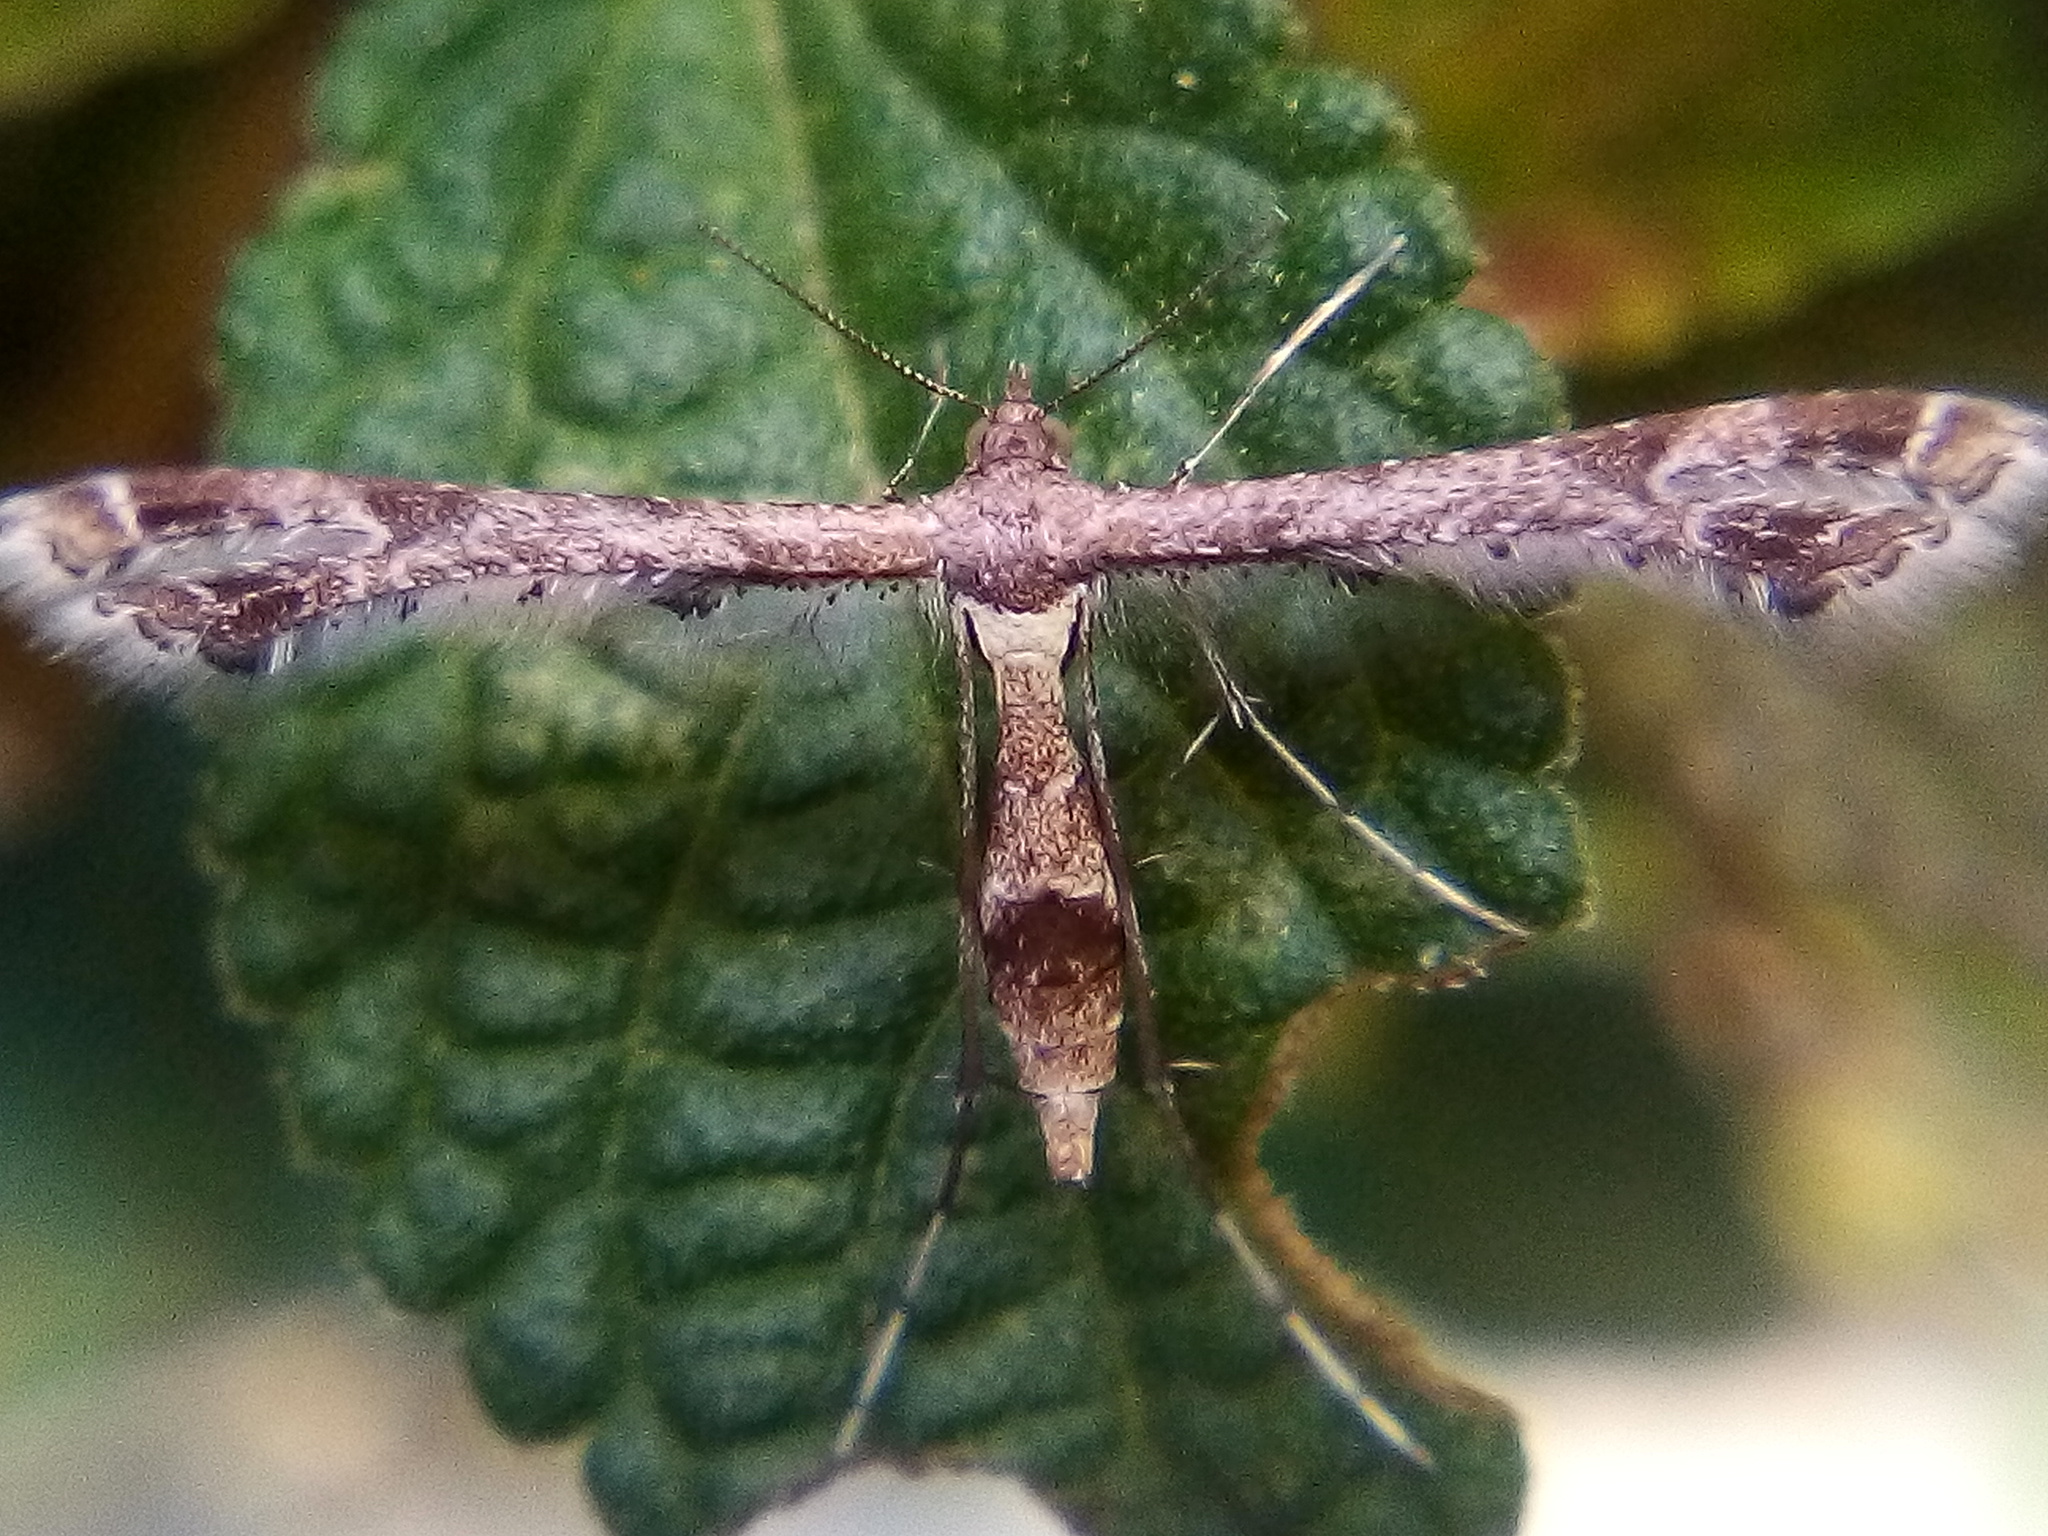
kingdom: Animalia
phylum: Arthropoda
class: Insecta
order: Lepidoptera
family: Pterophoridae
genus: Lantanophaga
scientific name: Lantanophaga pusillidactylus
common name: Moth
